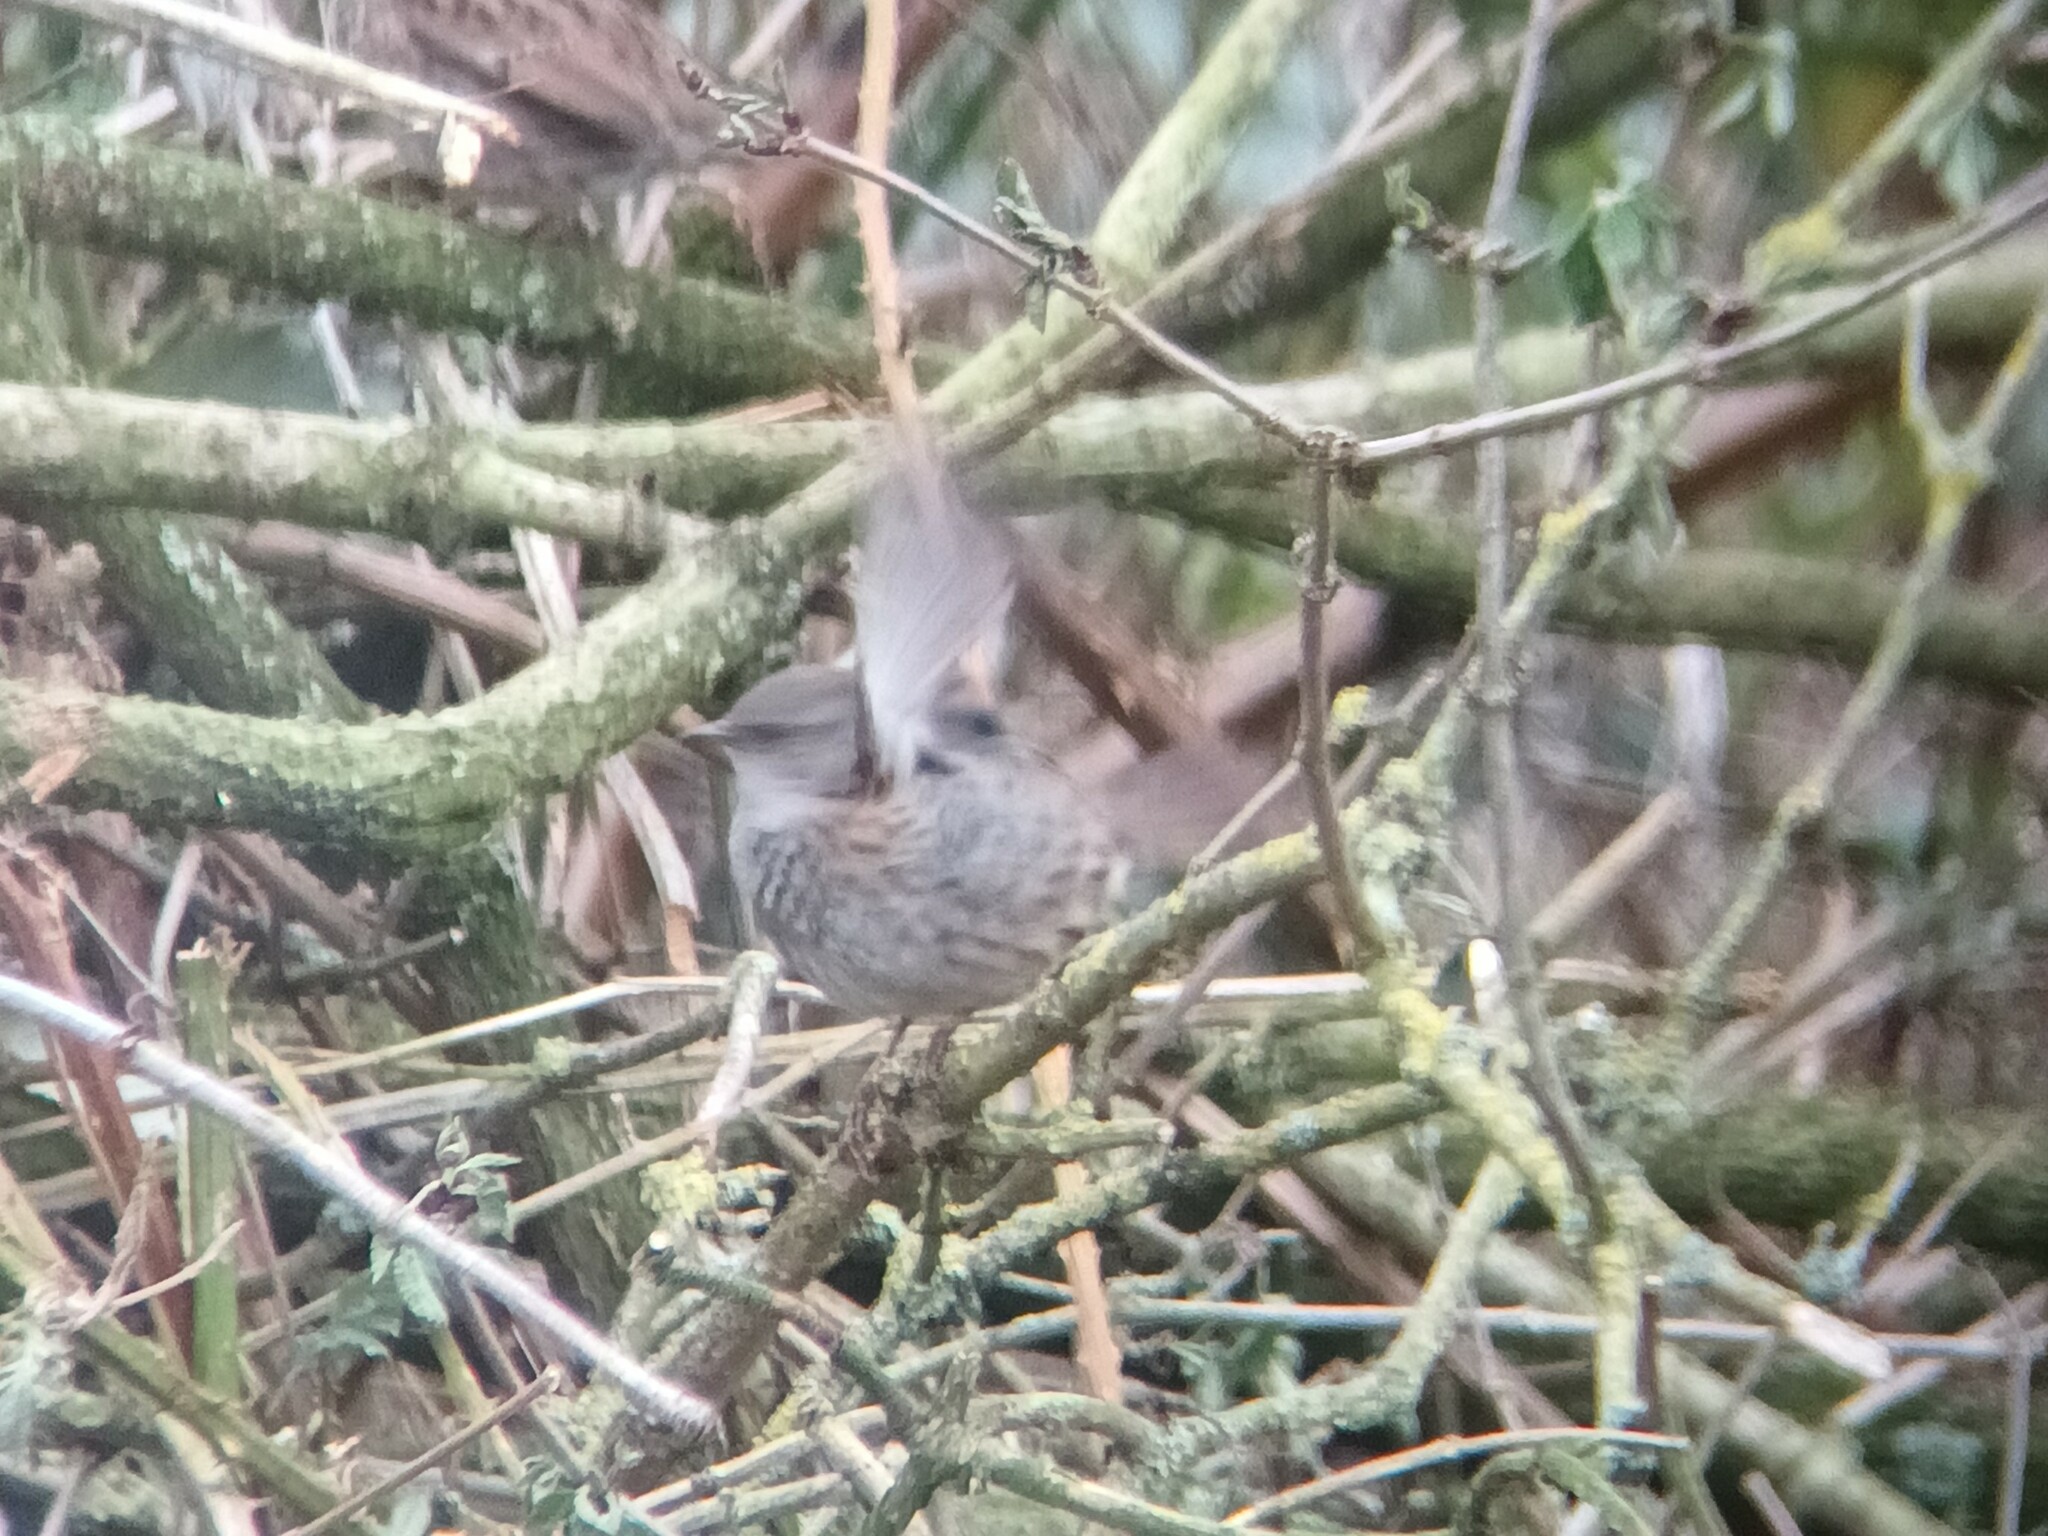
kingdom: Animalia
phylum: Chordata
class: Aves
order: Passeriformes
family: Prunellidae
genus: Prunella
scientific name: Prunella modularis
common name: Dunnock
